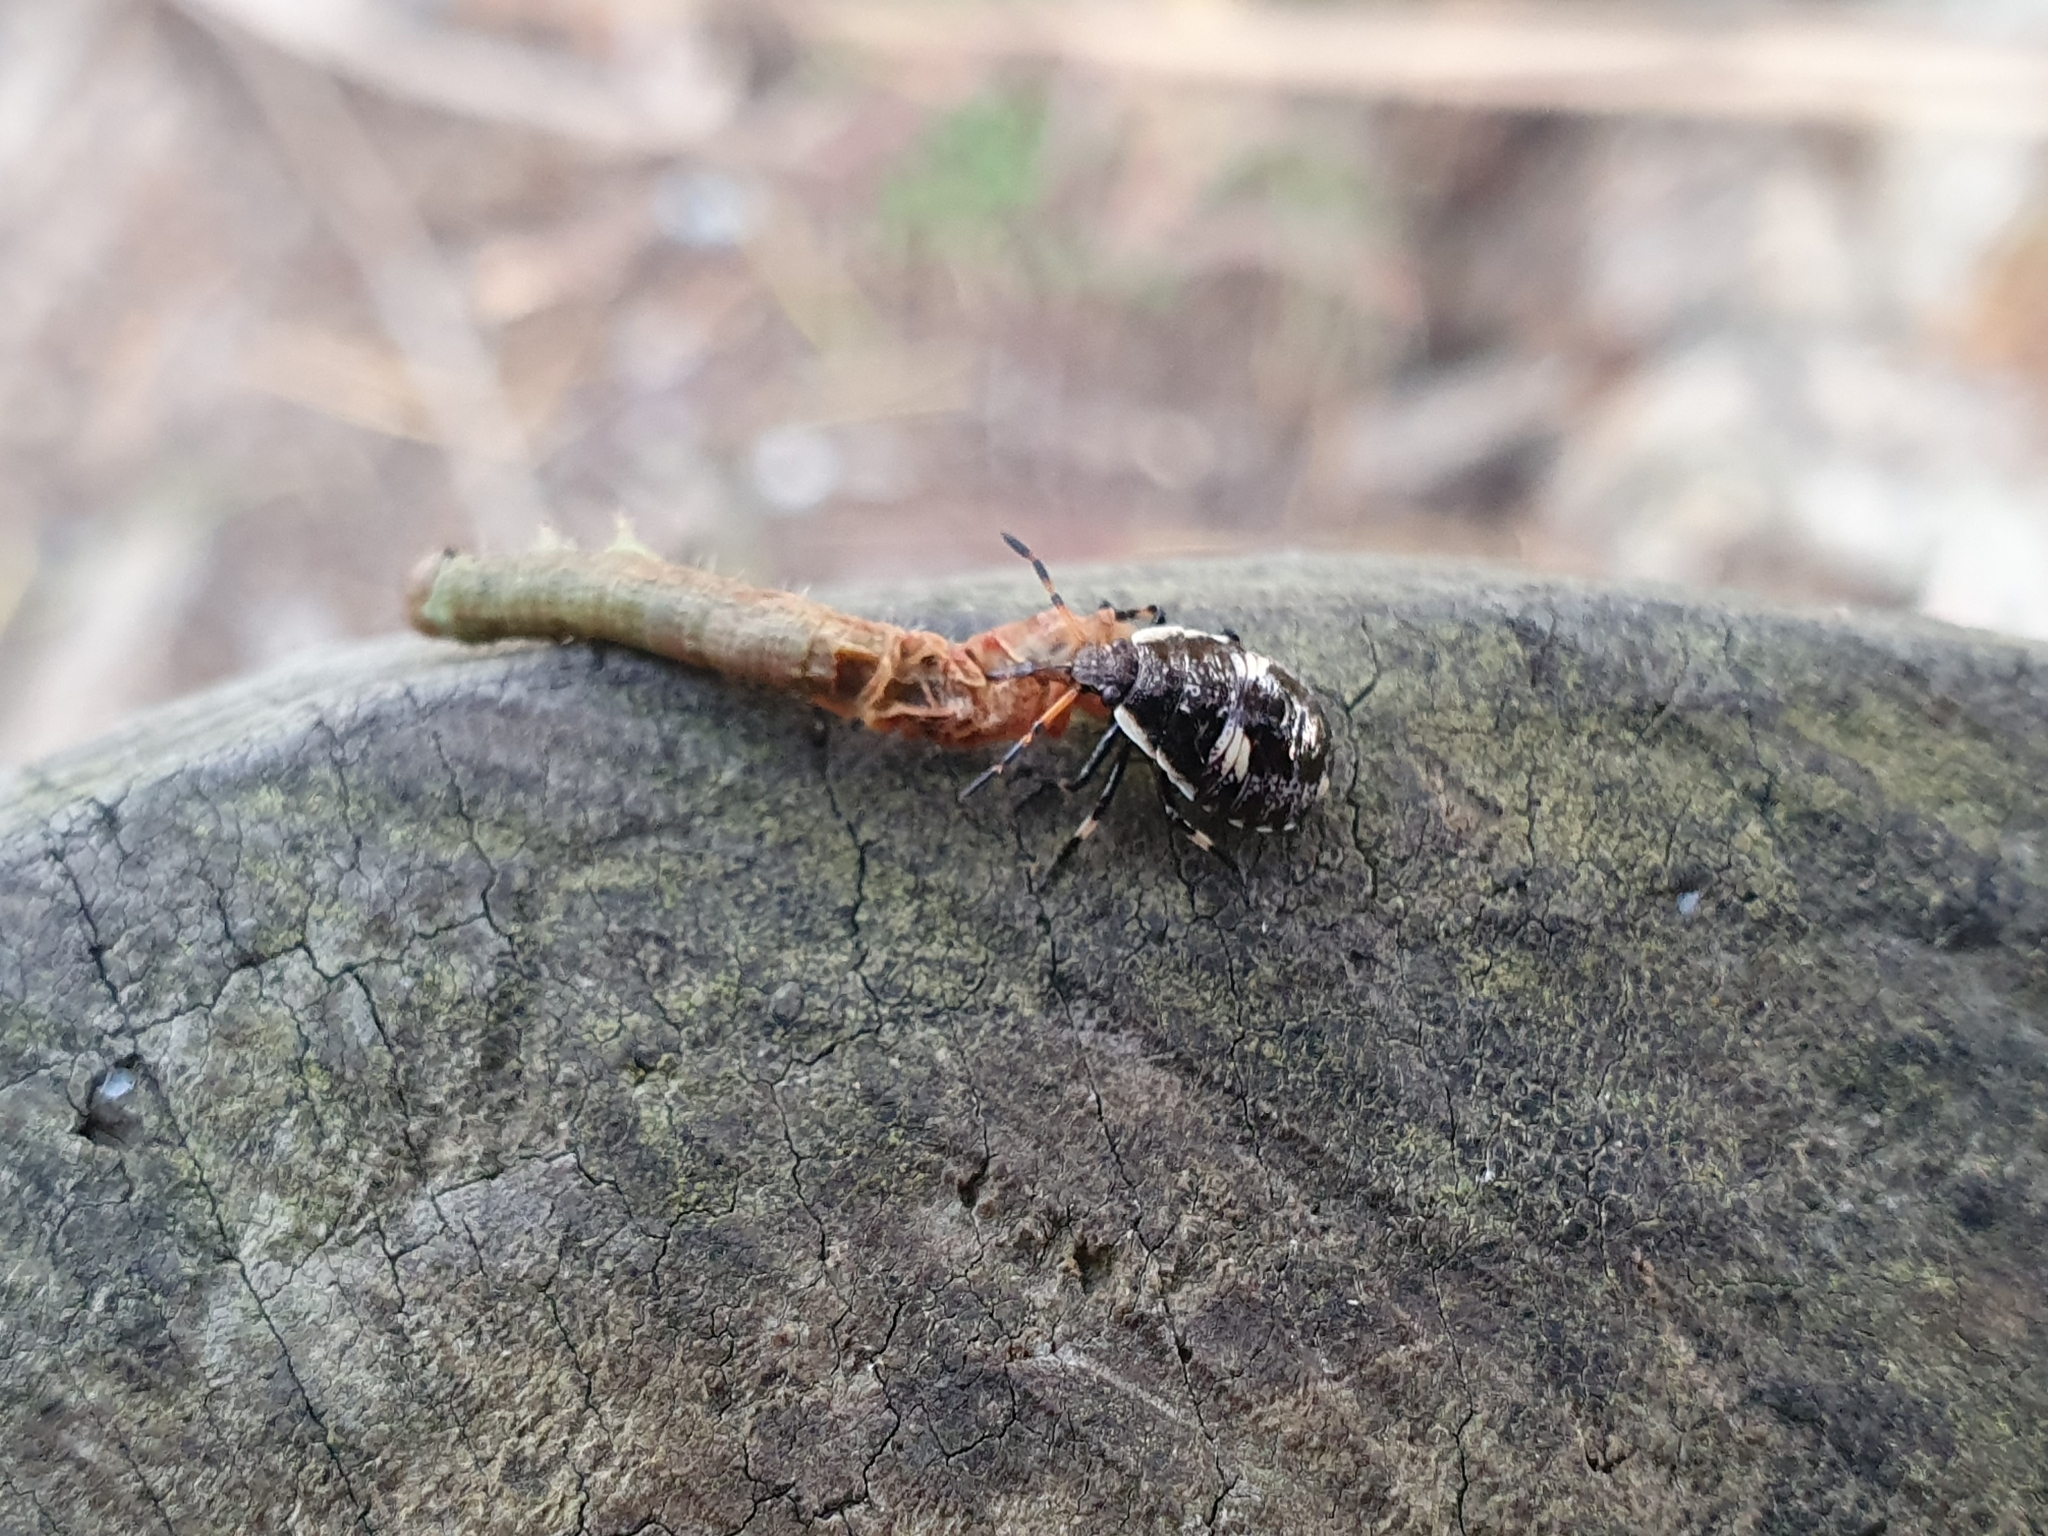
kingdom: Animalia
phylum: Arthropoda
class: Insecta
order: Hemiptera
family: Pentatomidae
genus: Cermatulus
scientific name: Cermatulus nasalis
